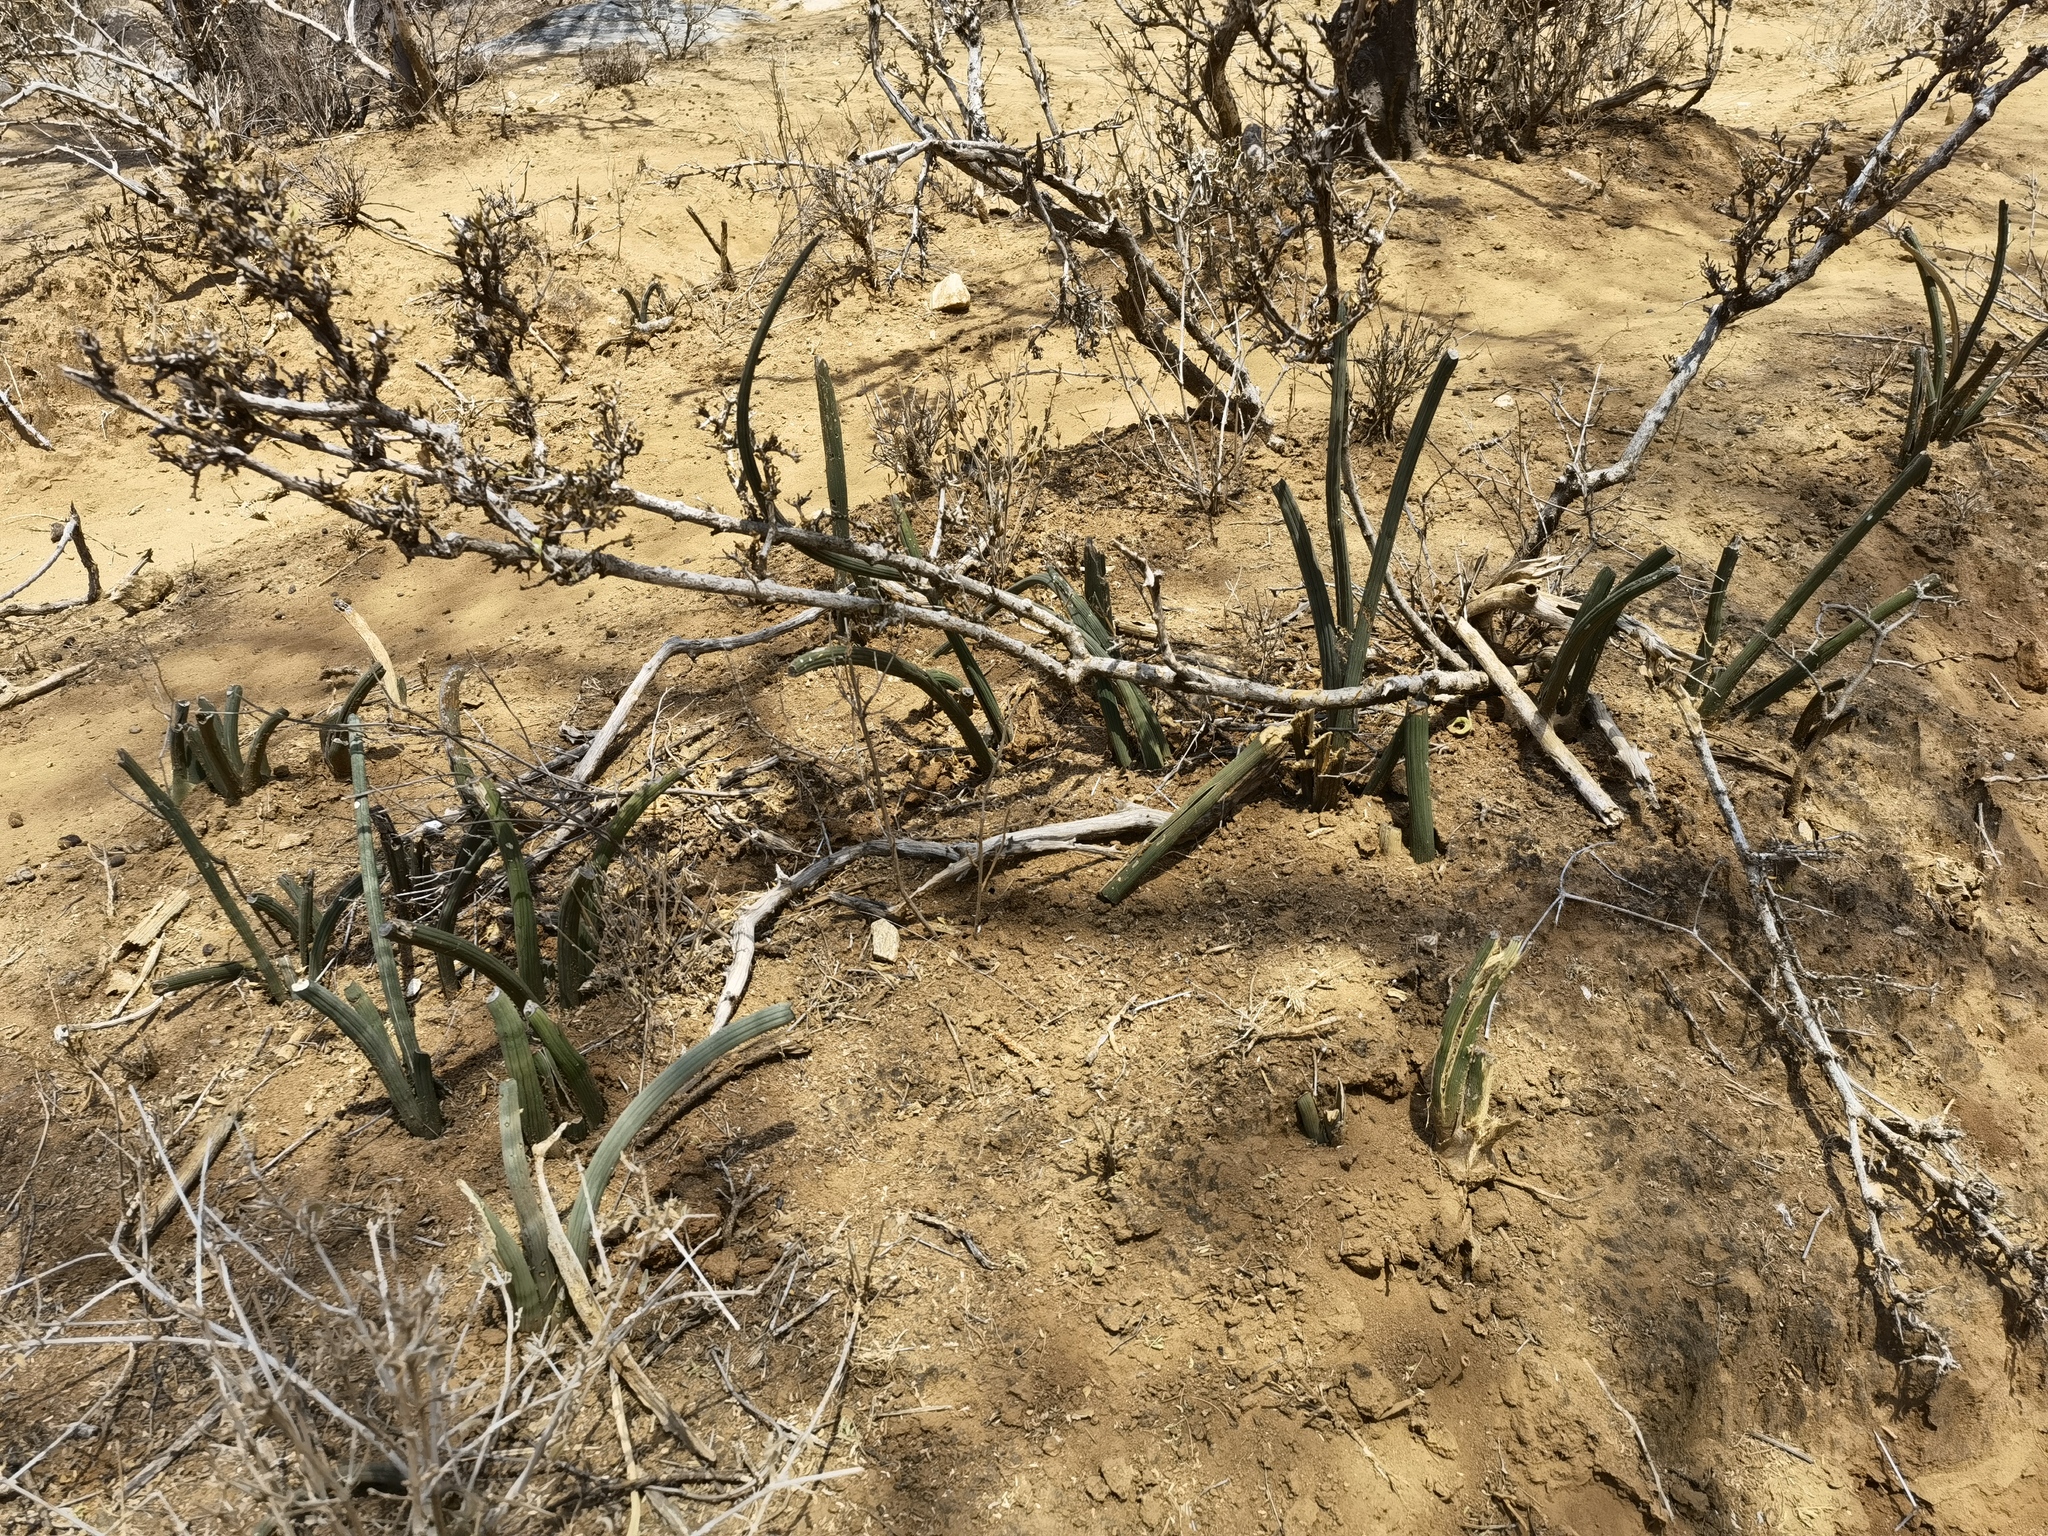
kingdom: Plantae
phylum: Tracheophyta
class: Liliopsida
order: Asparagales
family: Asparagaceae
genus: Dracaena
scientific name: Dracaena angolensis
